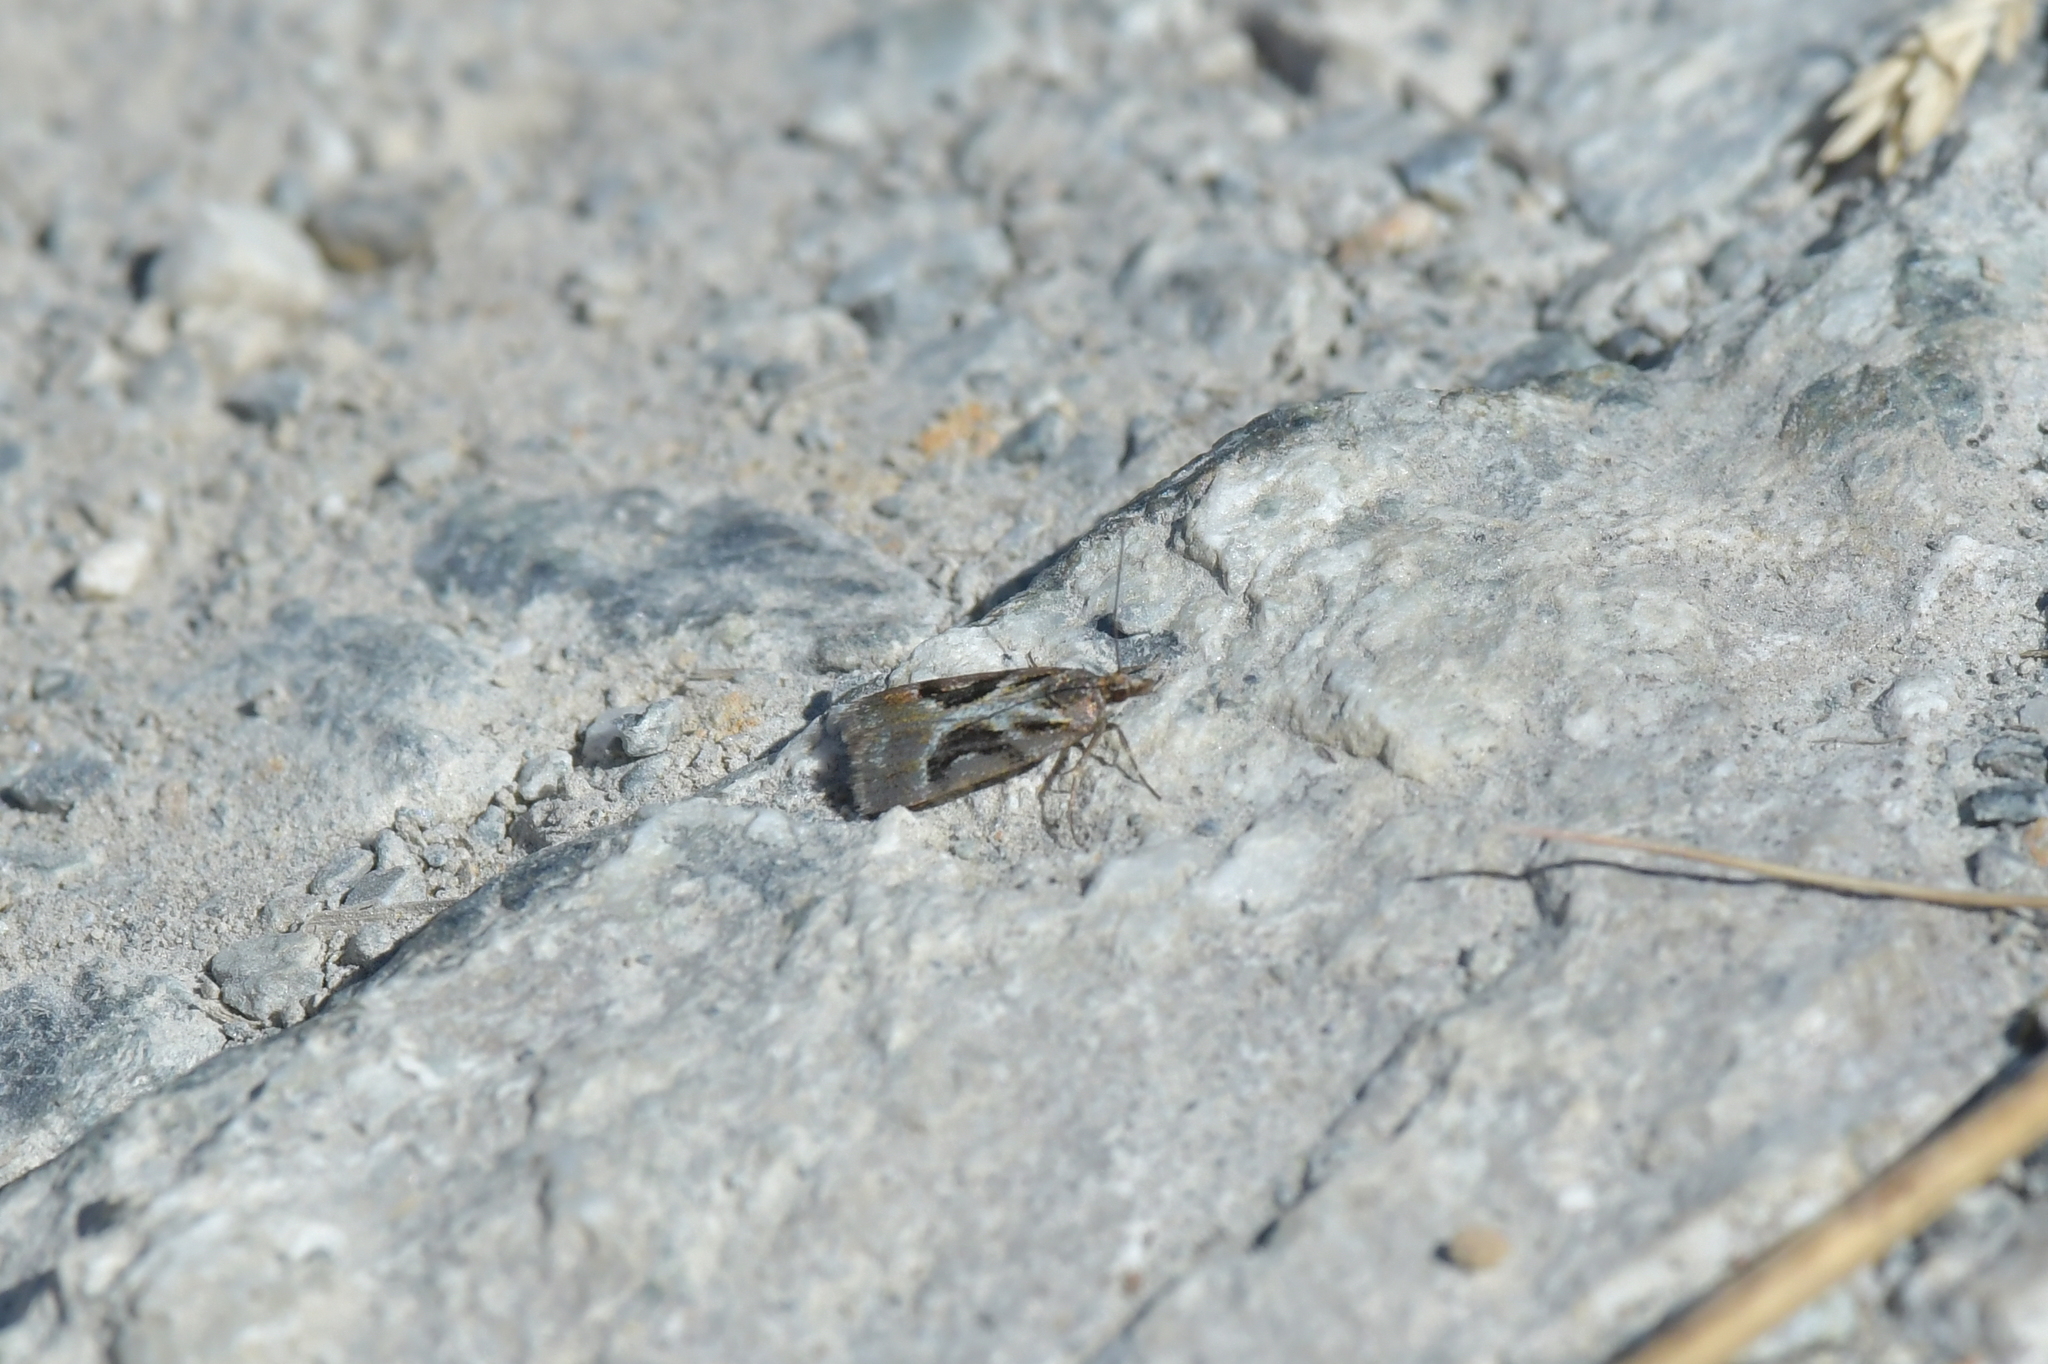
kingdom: Animalia
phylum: Arthropoda
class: Insecta
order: Lepidoptera
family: Crambidae
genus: Eudonia
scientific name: Eudonia hemicycla
